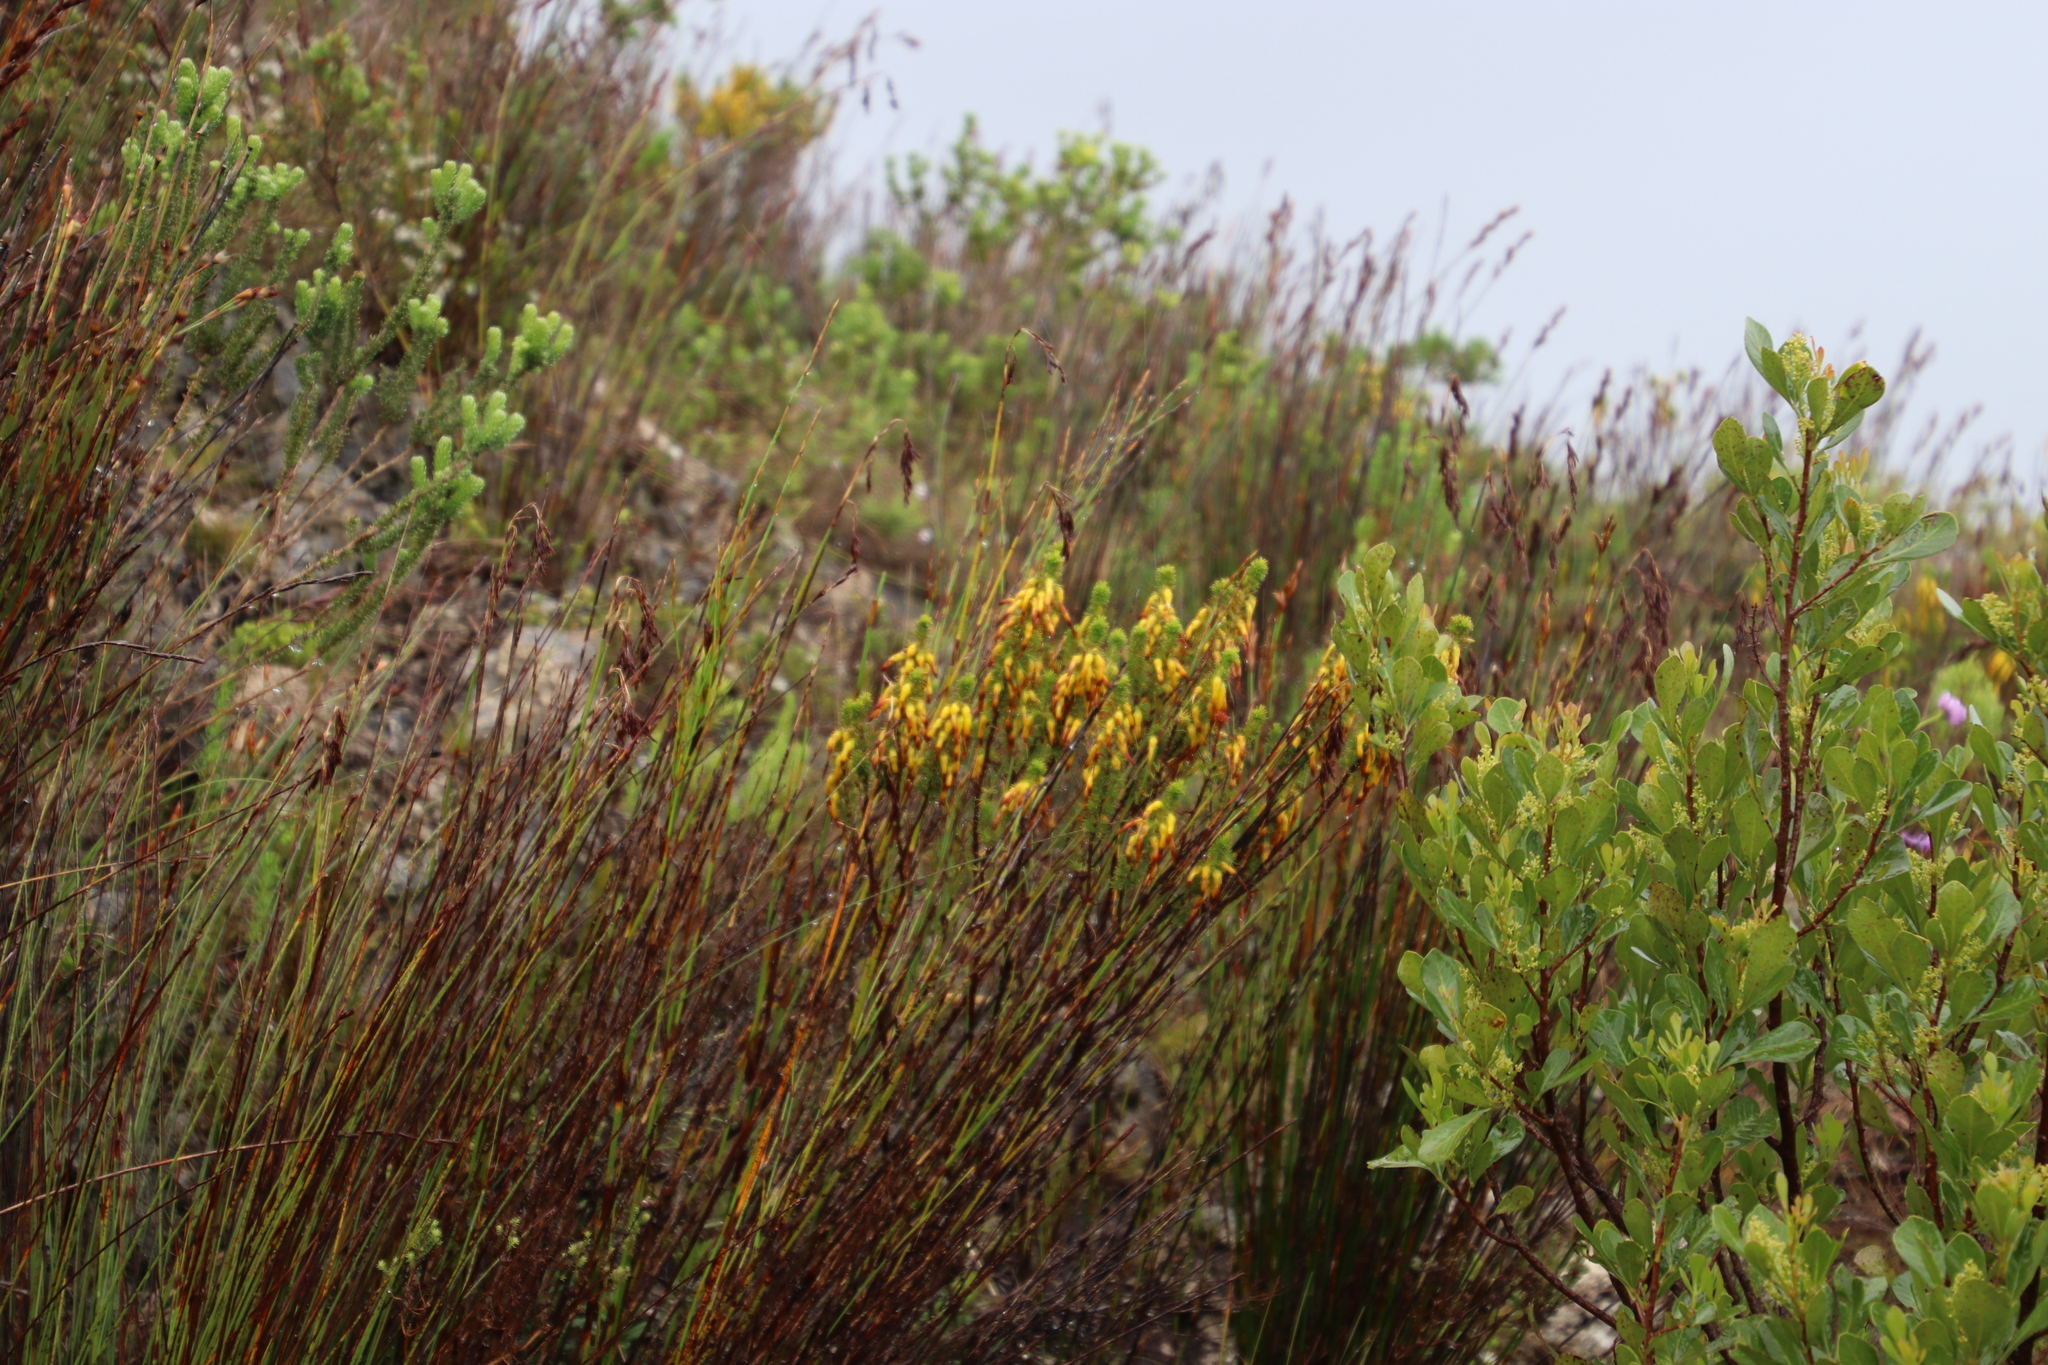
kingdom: Plantae
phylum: Tracheophyta
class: Magnoliopsida
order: Ericales
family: Ericaceae
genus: Erica
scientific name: Erica coccinea
